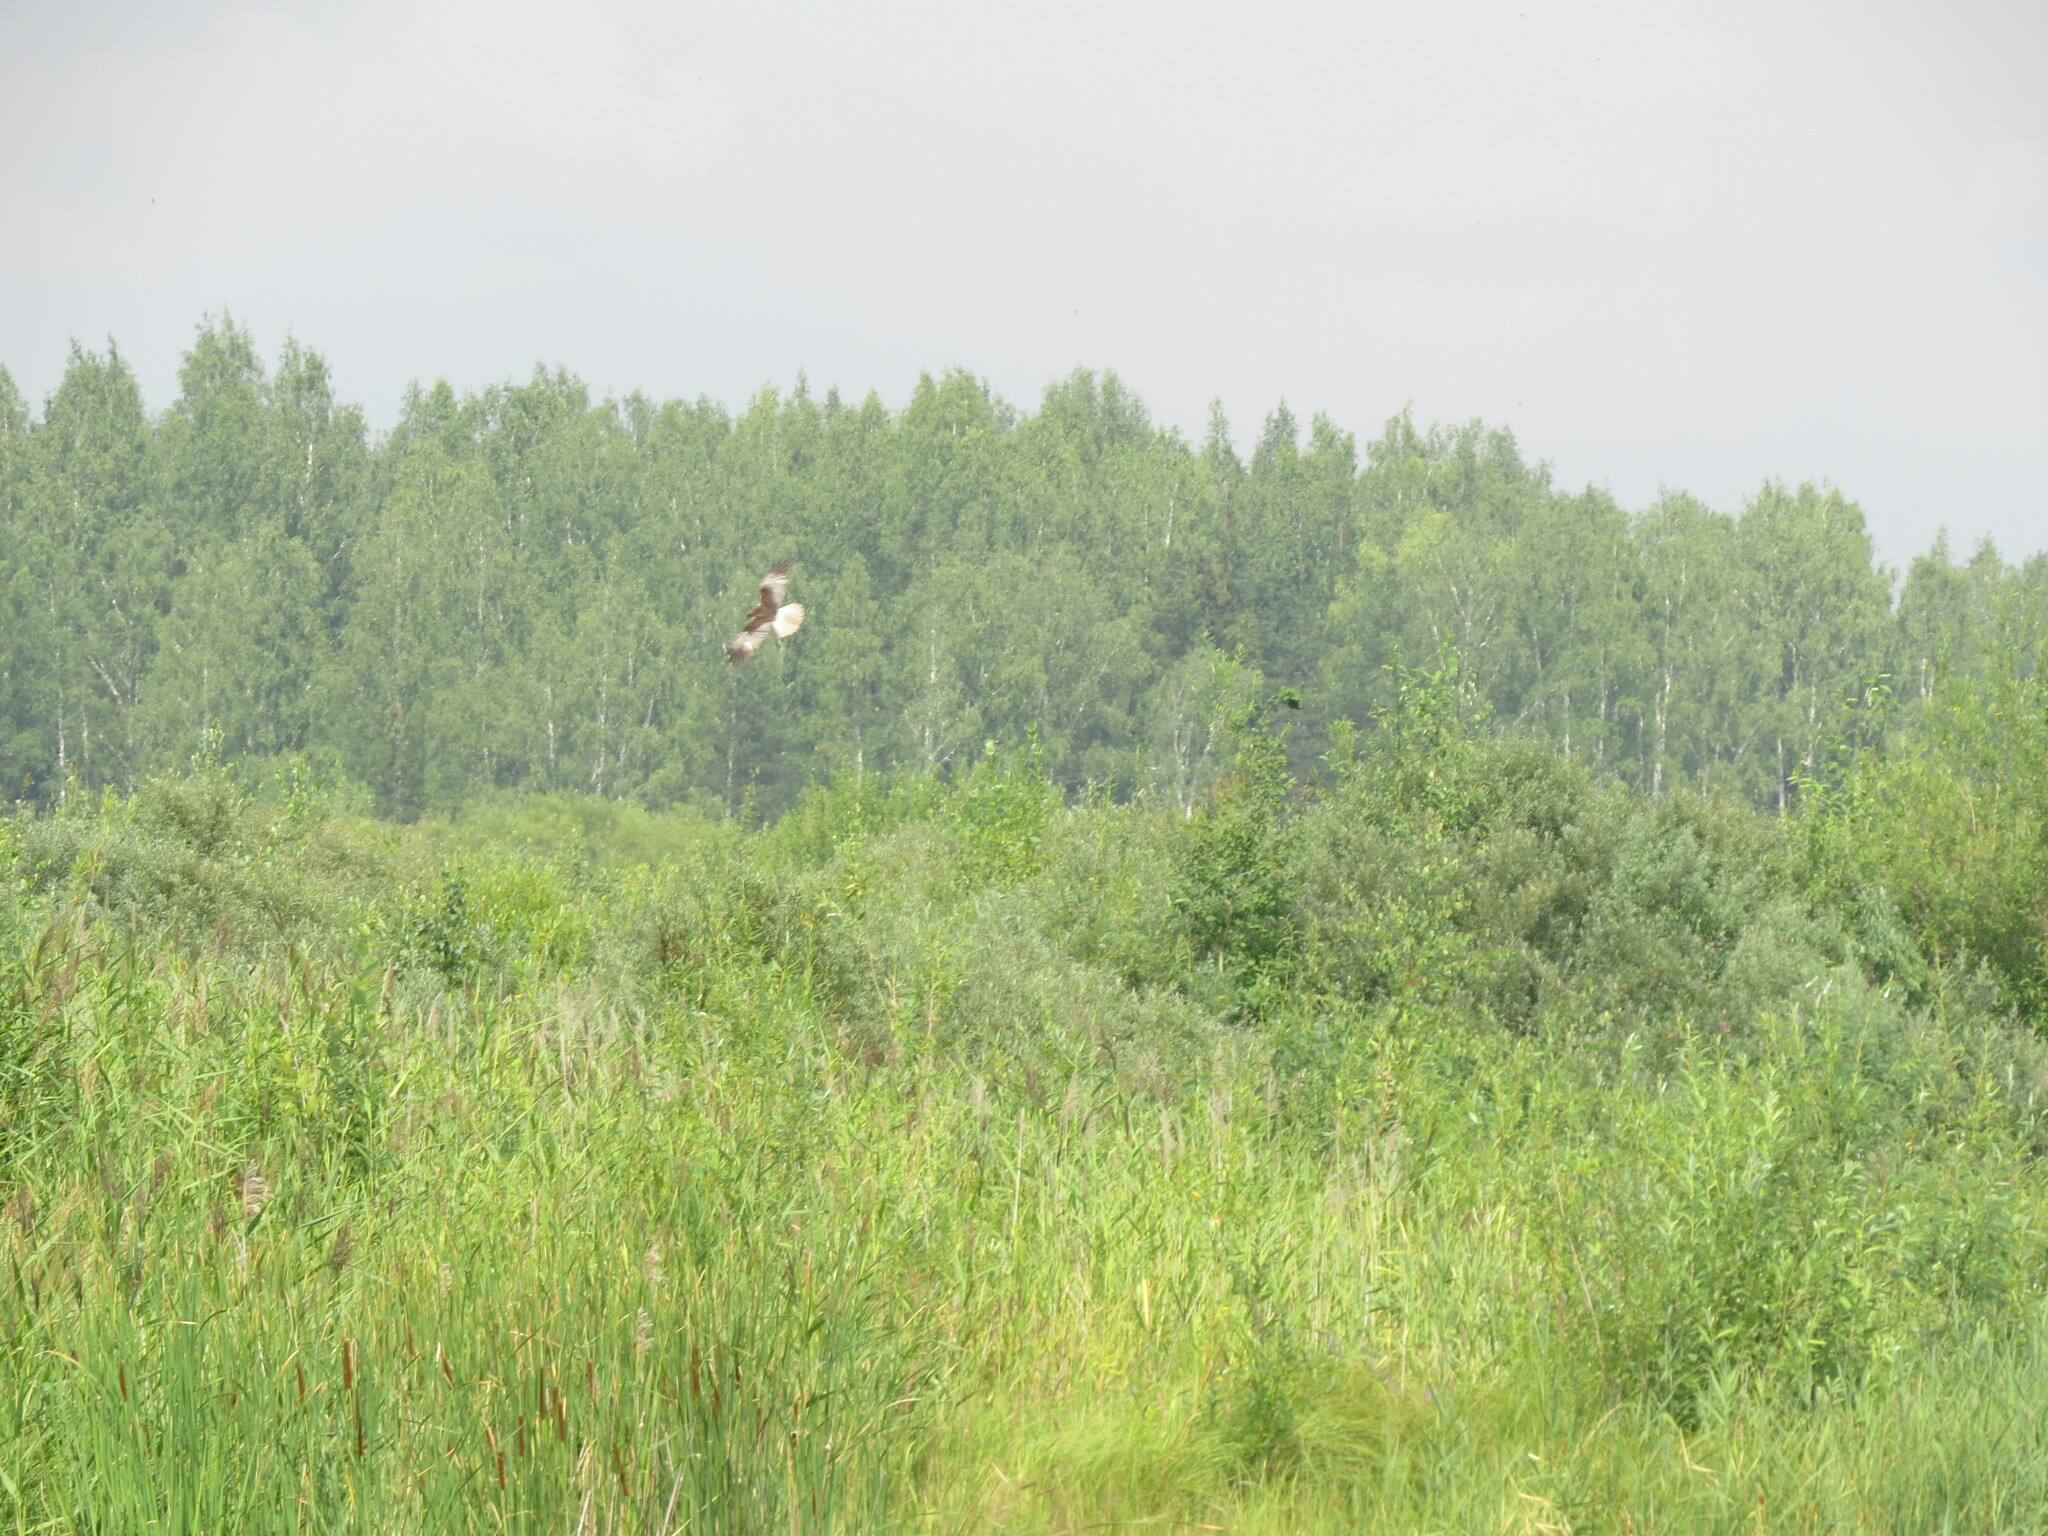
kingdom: Animalia
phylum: Chordata
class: Aves
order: Accipitriformes
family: Accipitridae
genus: Circus
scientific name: Circus aeruginosus
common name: Western marsh harrier
